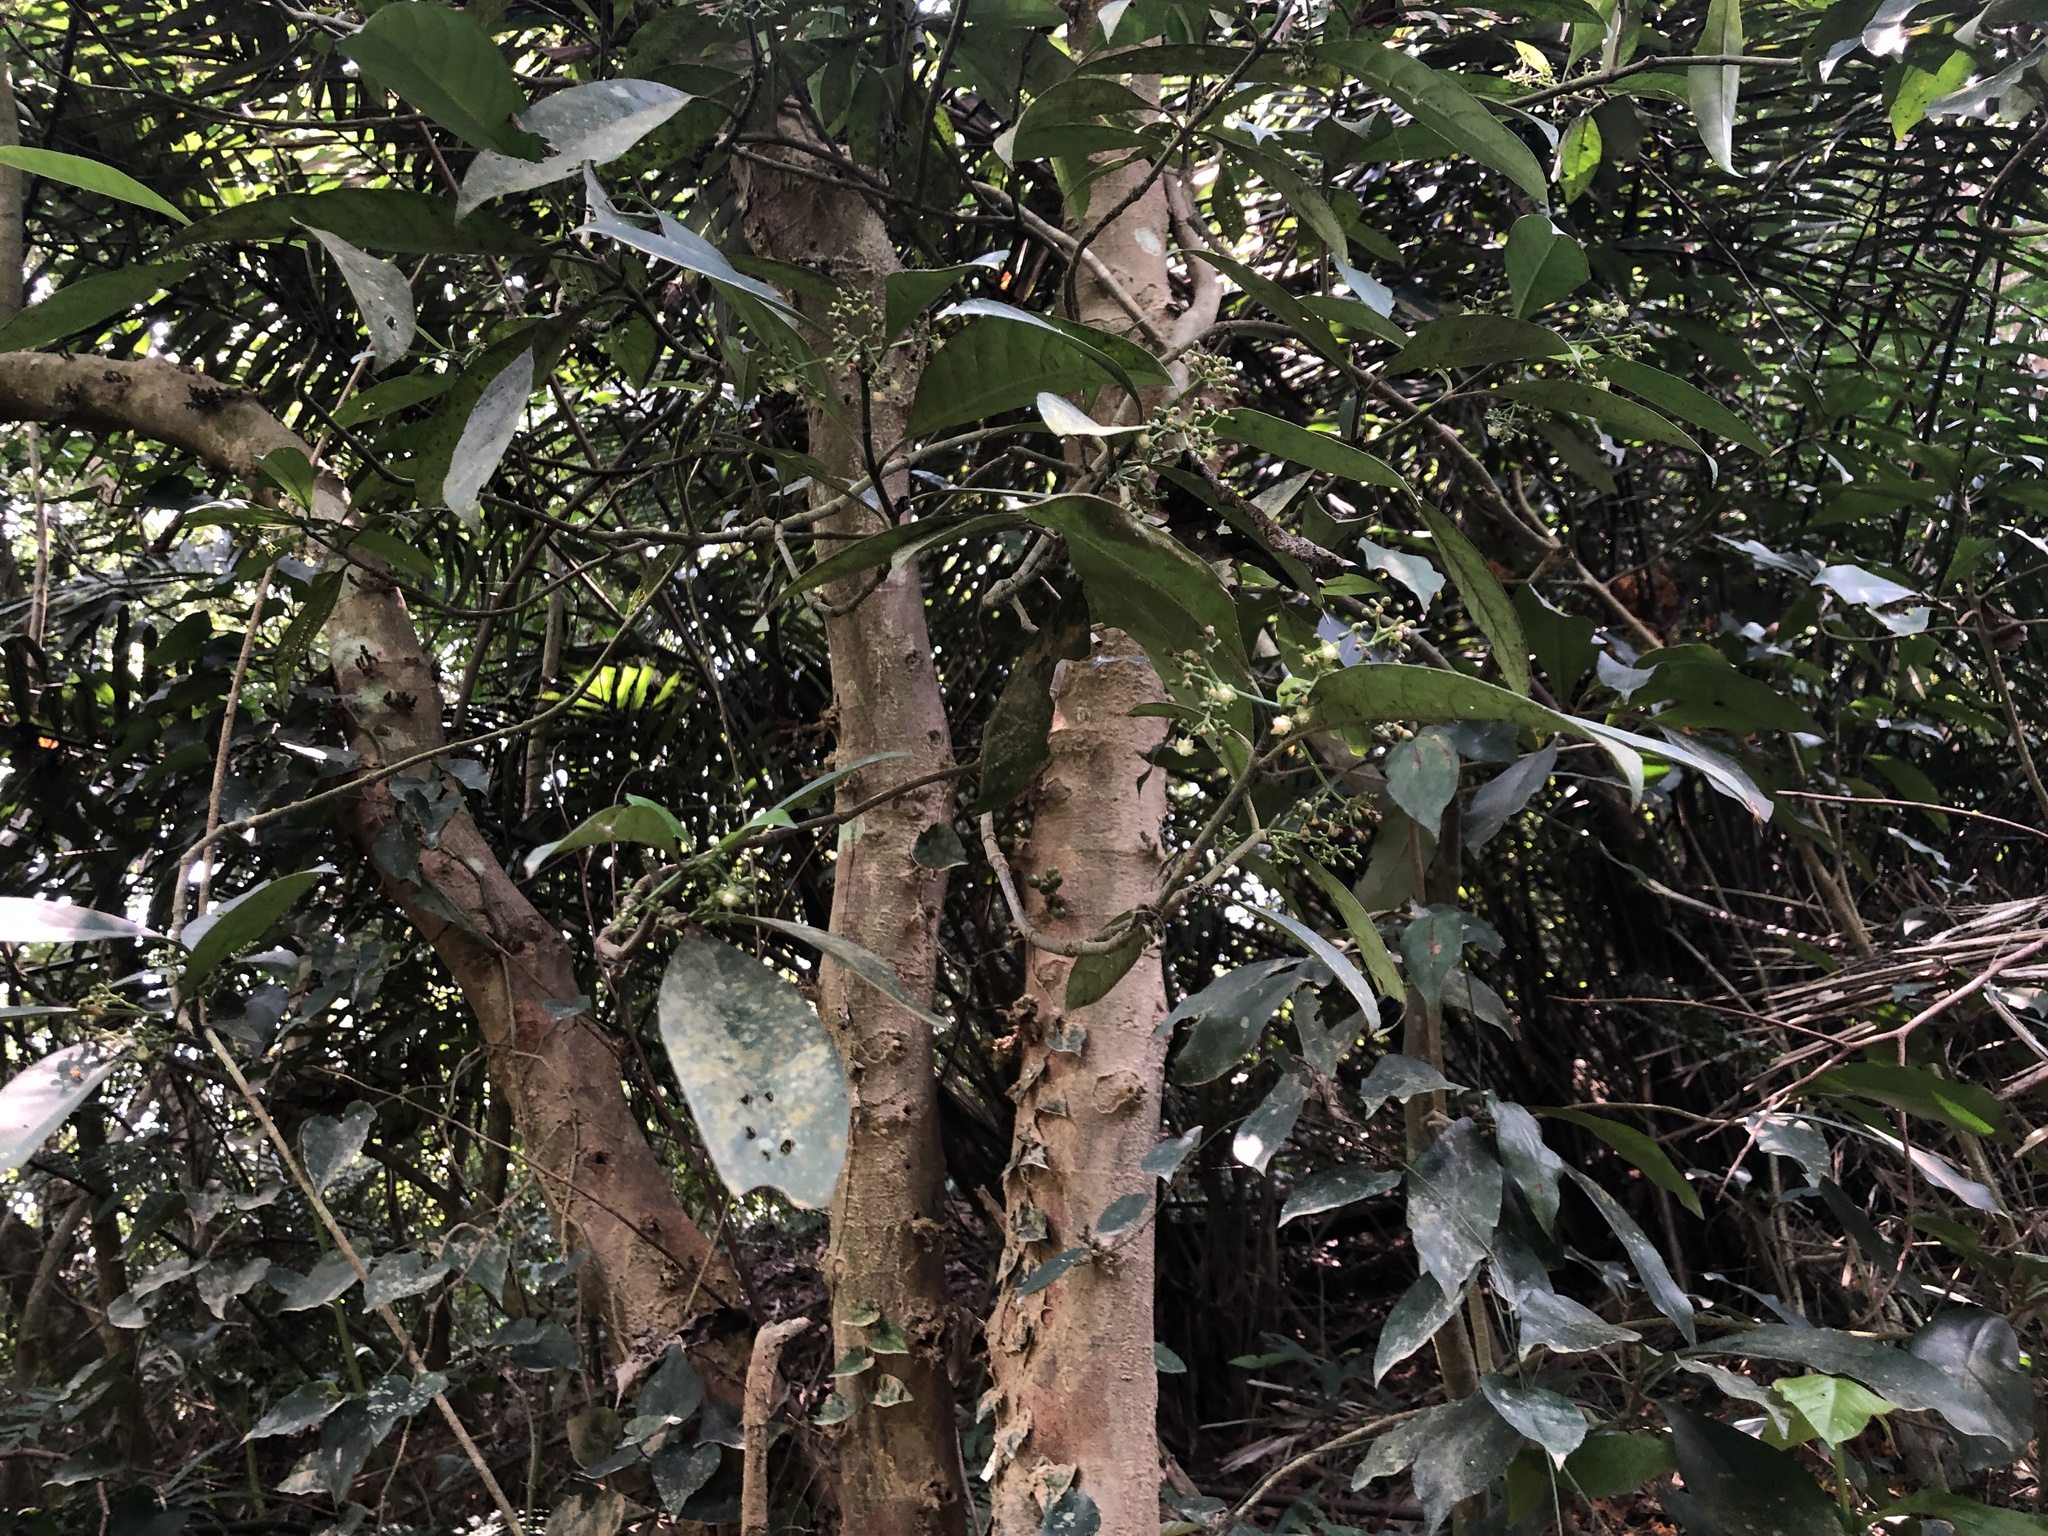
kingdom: Plantae
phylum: Tracheophyta
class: Magnoliopsida
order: Gentianales
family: Rubiaceae
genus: Psychotria
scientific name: Psychotria asiatica
